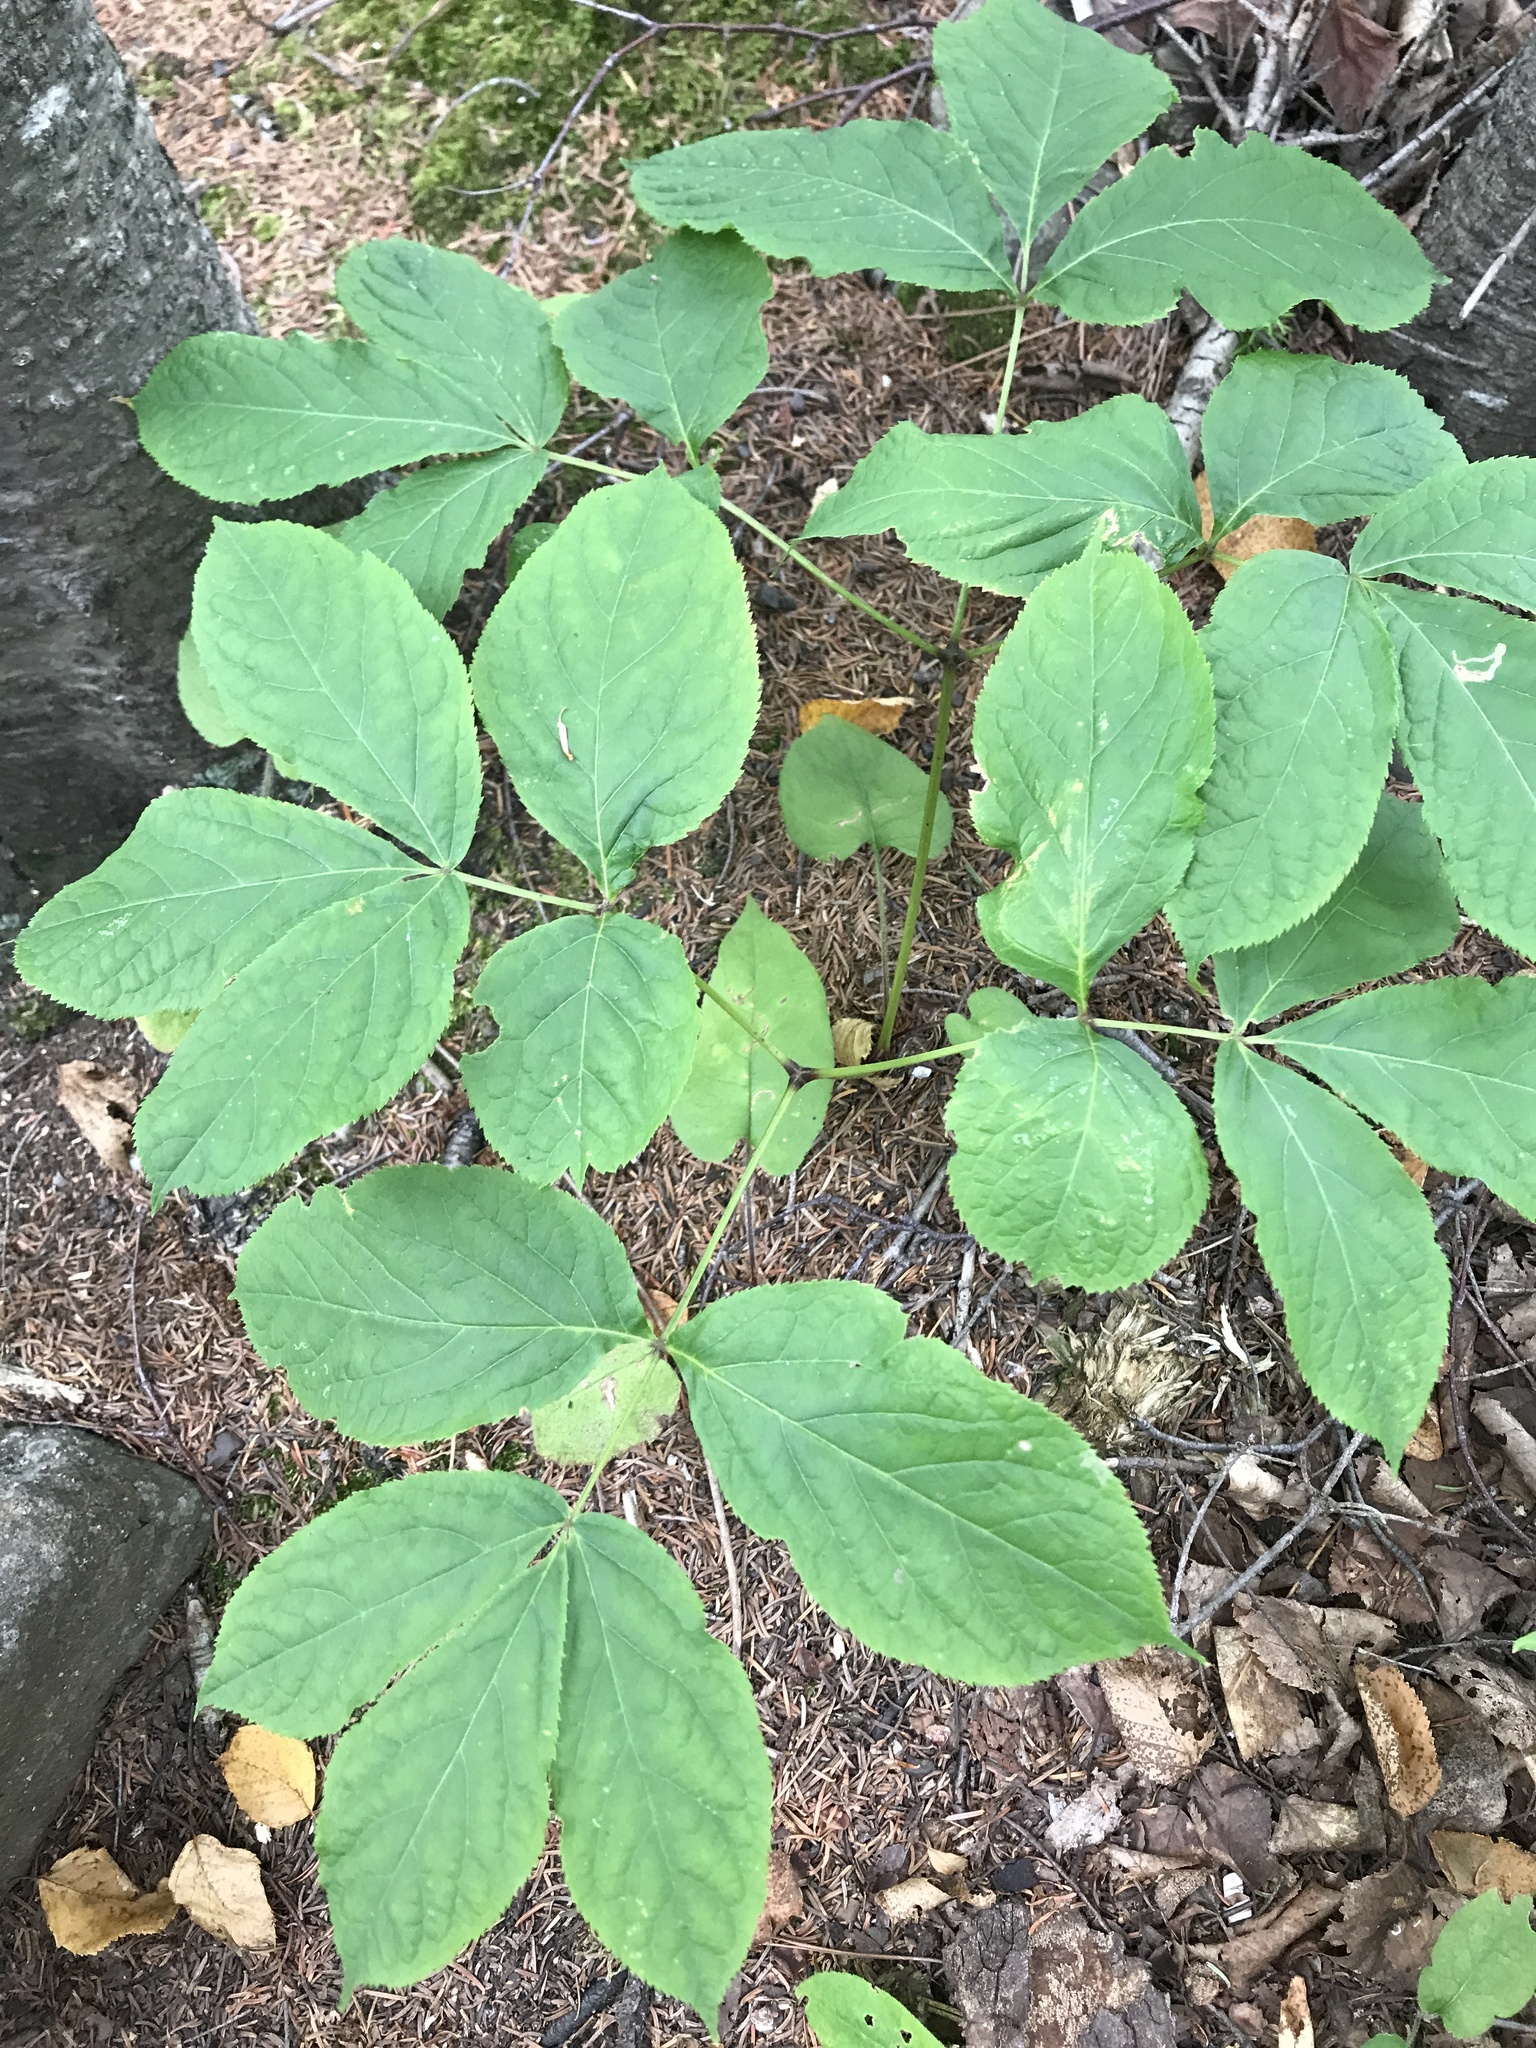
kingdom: Plantae
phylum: Tracheophyta
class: Magnoliopsida
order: Apiales
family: Araliaceae
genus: Aralia
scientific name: Aralia nudicaulis
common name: Wild sarsaparilla
